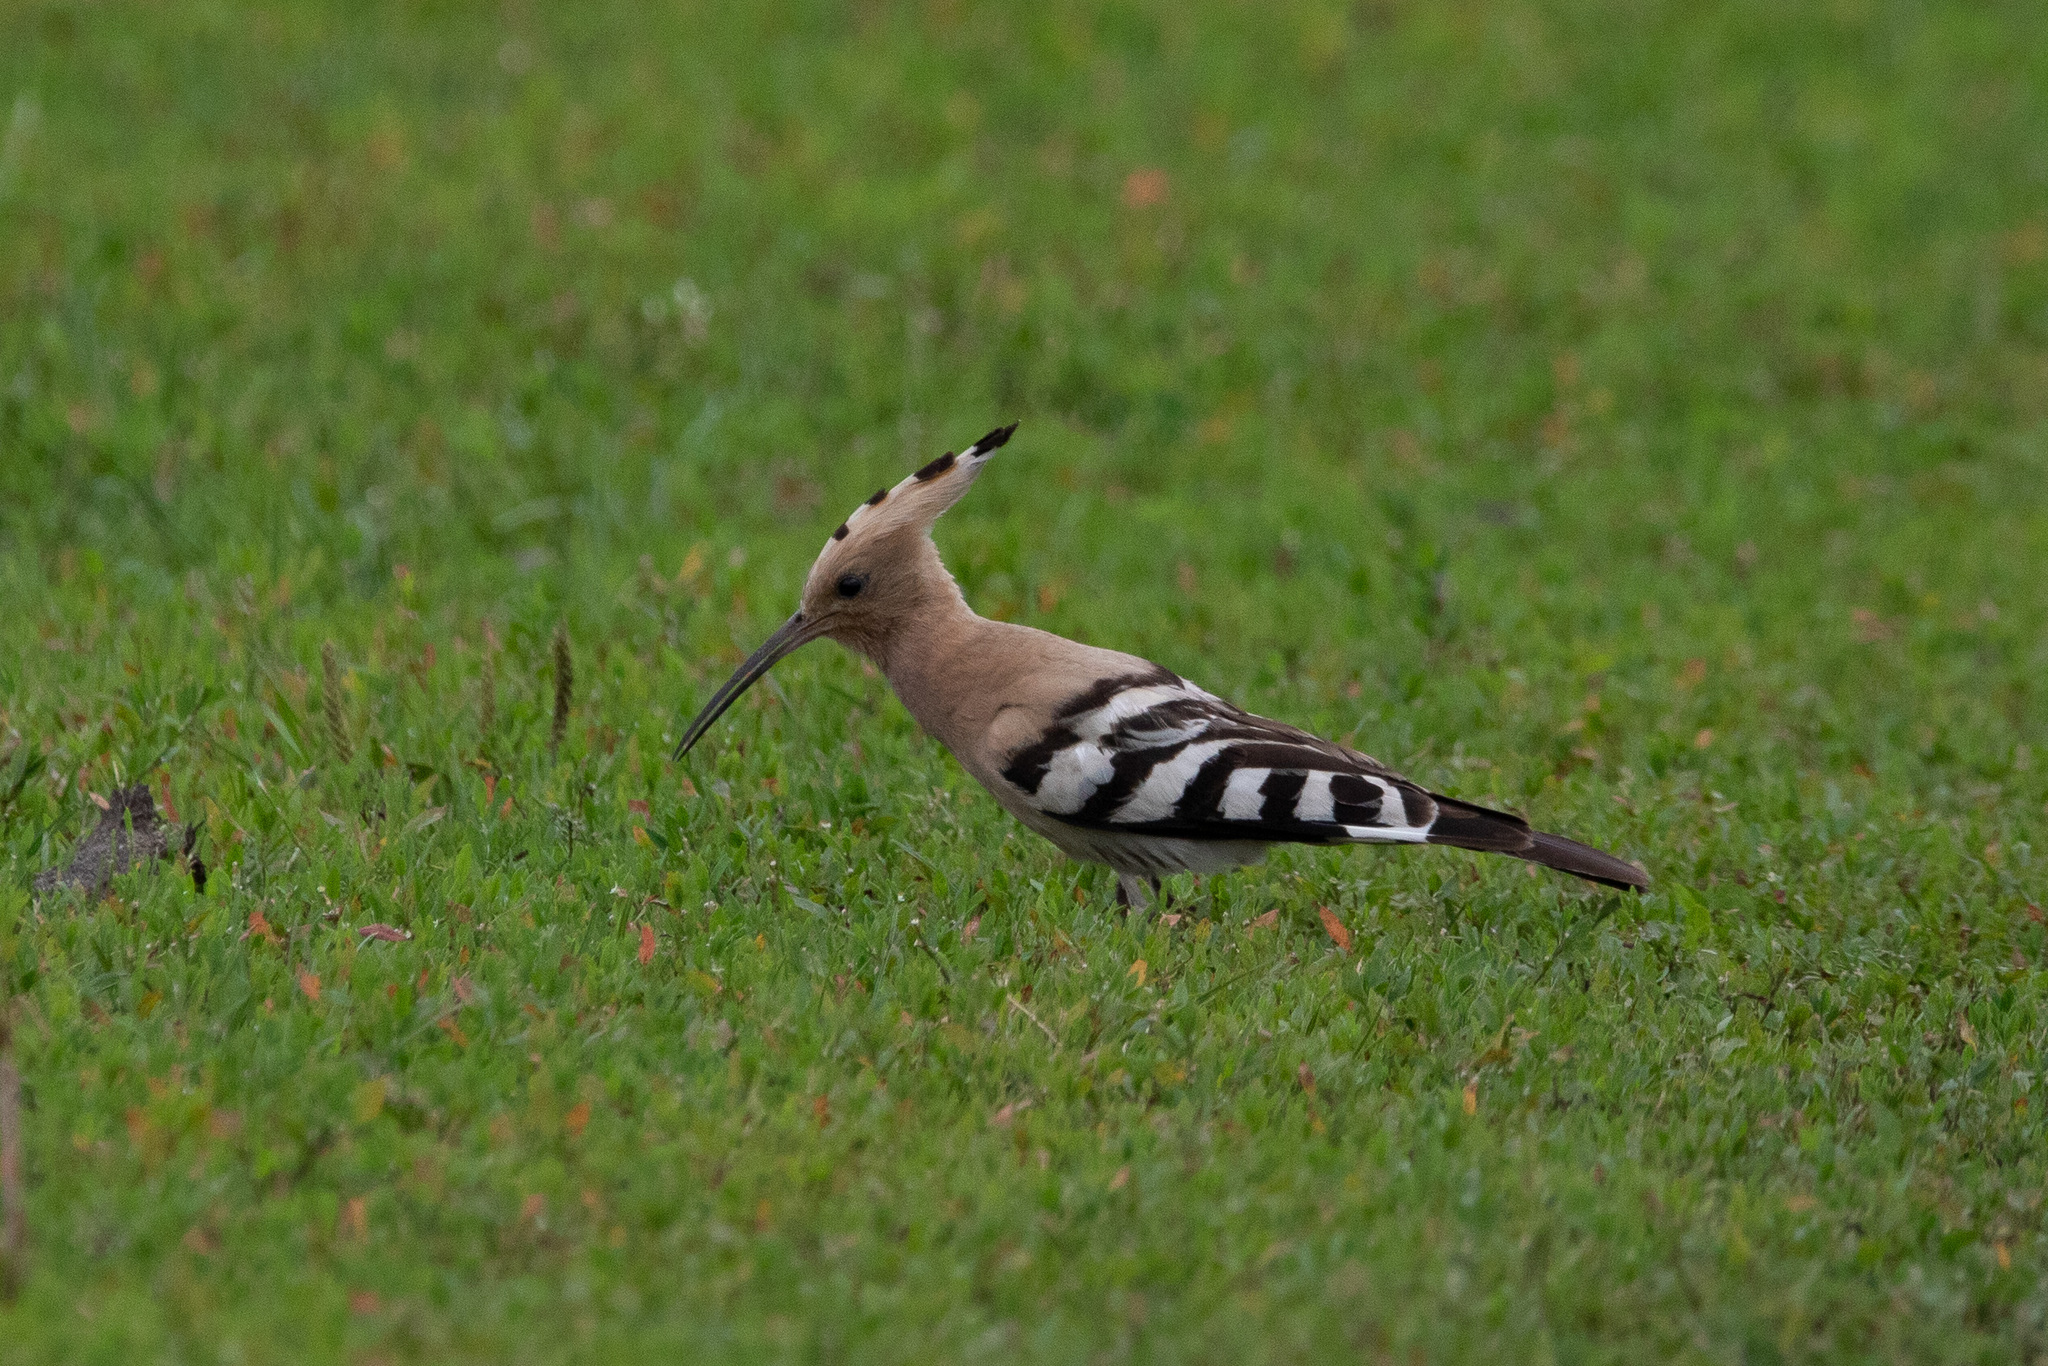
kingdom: Animalia
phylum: Chordata
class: Aves
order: Bucerotiformes
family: Upupidae
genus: Upupa
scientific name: Upupa epops
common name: Eurasian hoopoe
